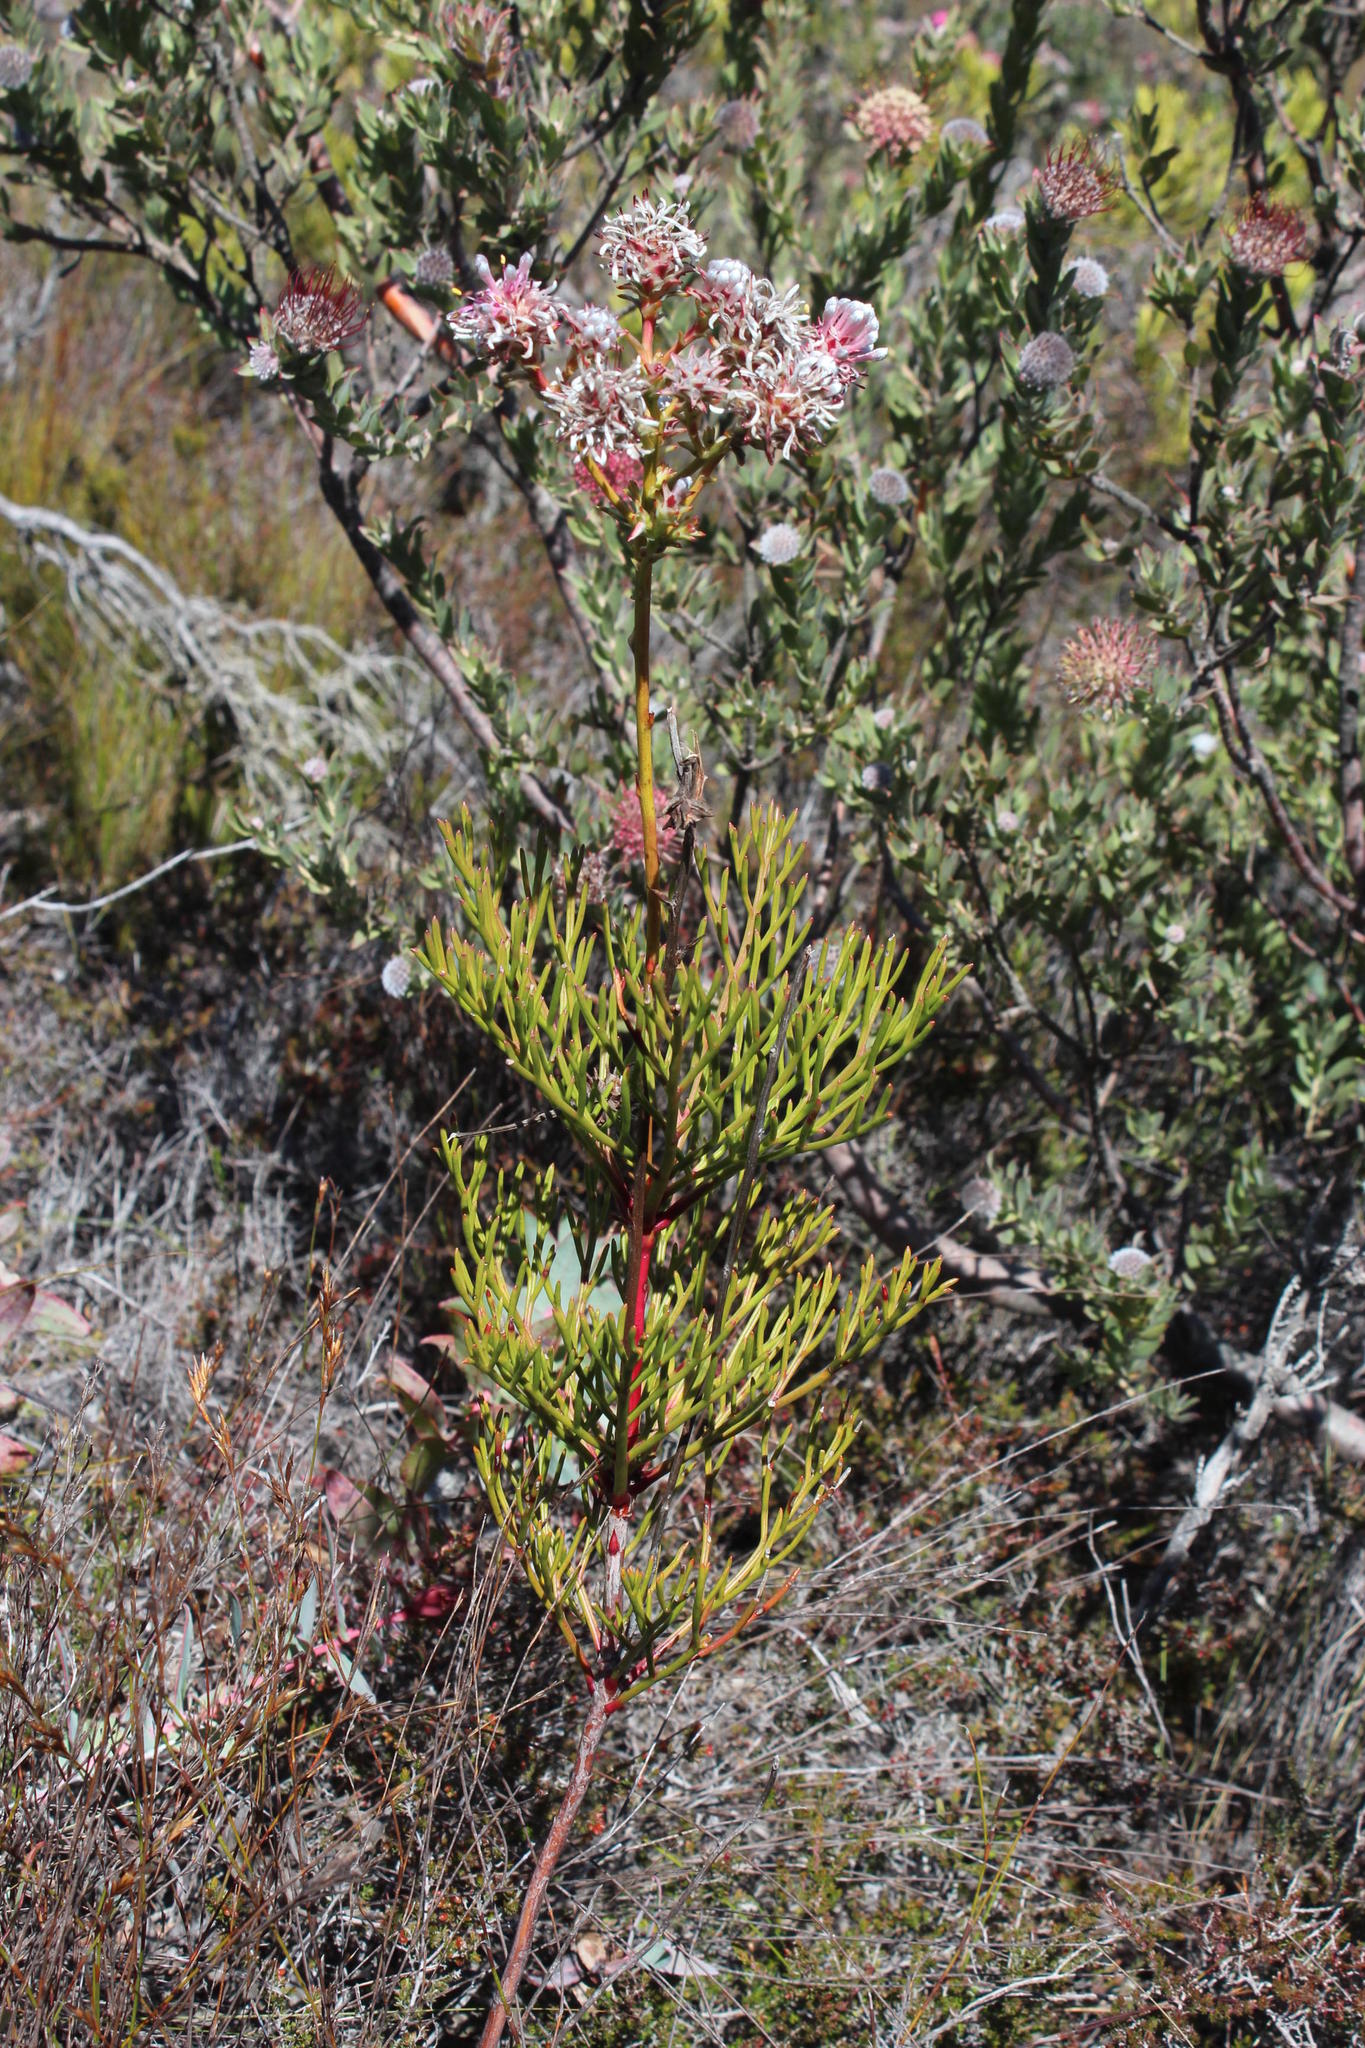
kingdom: Plantae
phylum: Tracheophyta
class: Magnoliopsida
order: Proteales
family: Proteaceae
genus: Serruria
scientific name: Serruria elongata
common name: Long-stalk spiderhead
